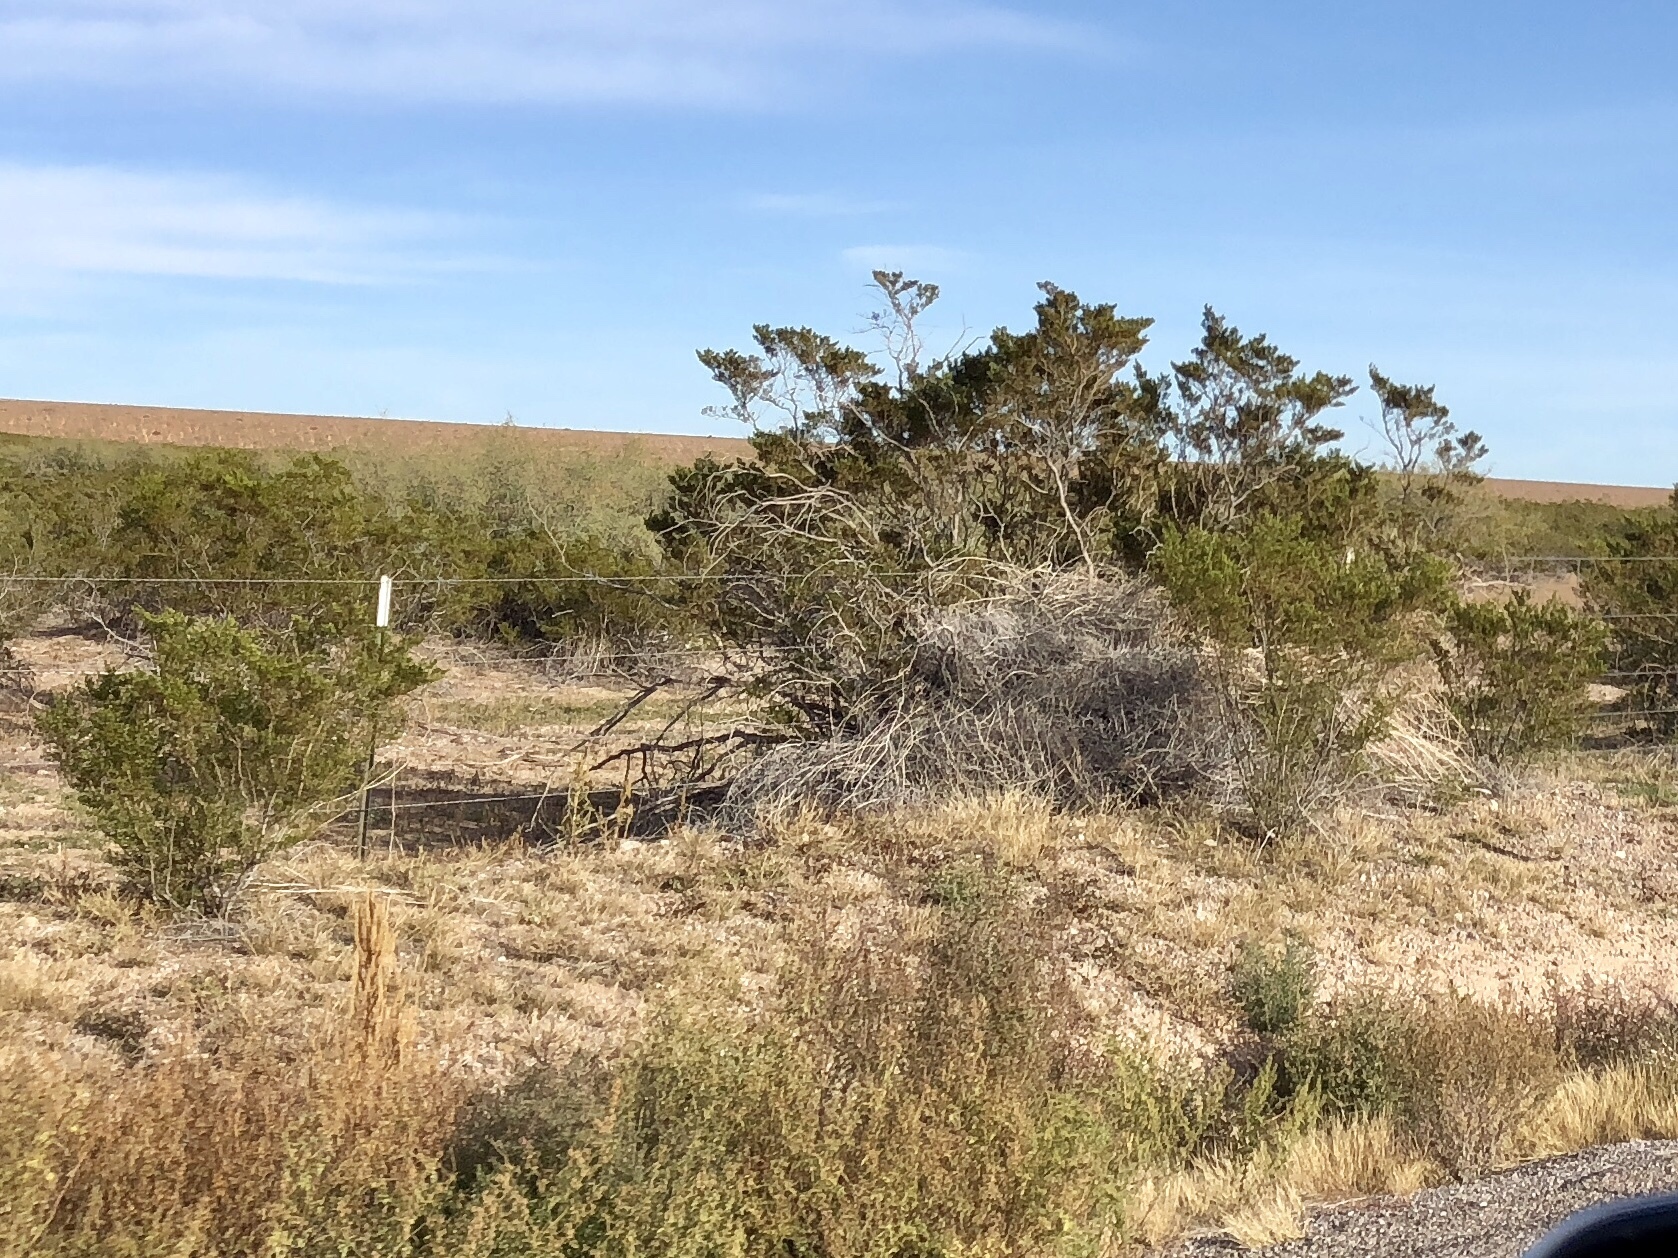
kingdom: Plantae
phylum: Tracheophyta
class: Magnoliopsida
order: Zygophyllales
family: Zygophyllaceae
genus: Larrea
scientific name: Larrea tridentata
